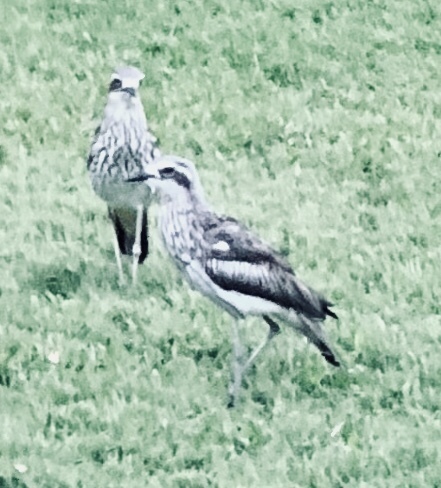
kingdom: Animalia
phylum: Chordata
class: Aves
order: Charadriiformes
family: Burhinidae
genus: Burhinus
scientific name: Burhinus grallarius
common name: Bush stone-curlew
